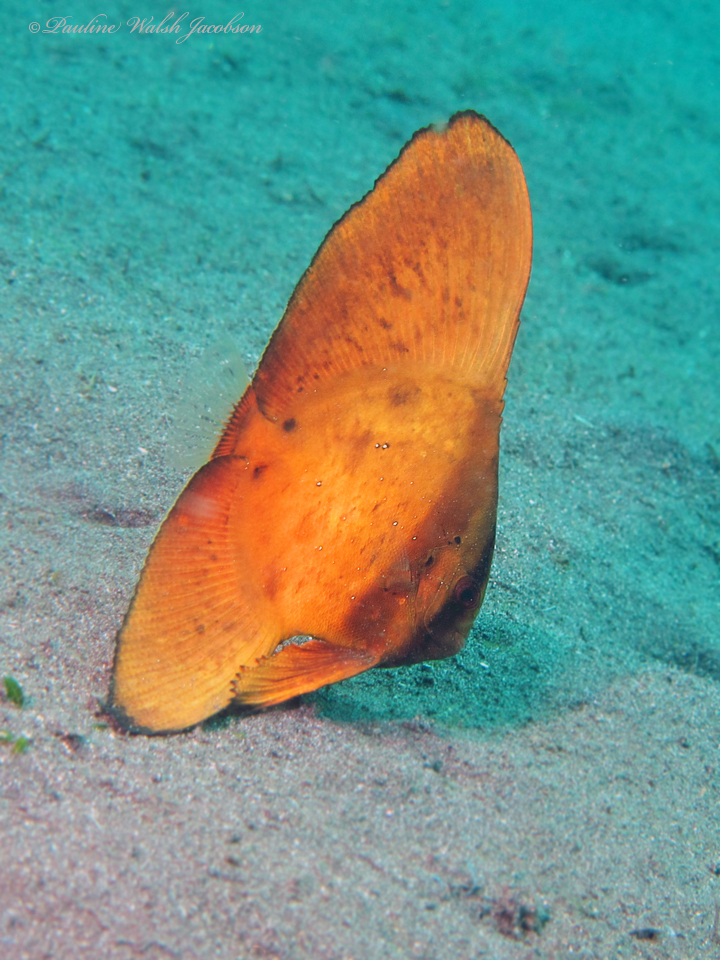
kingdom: Animalia
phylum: Chordata
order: Perciformes
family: Ephippidae
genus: Platax
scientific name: Platax orbicularis
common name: Batfish
